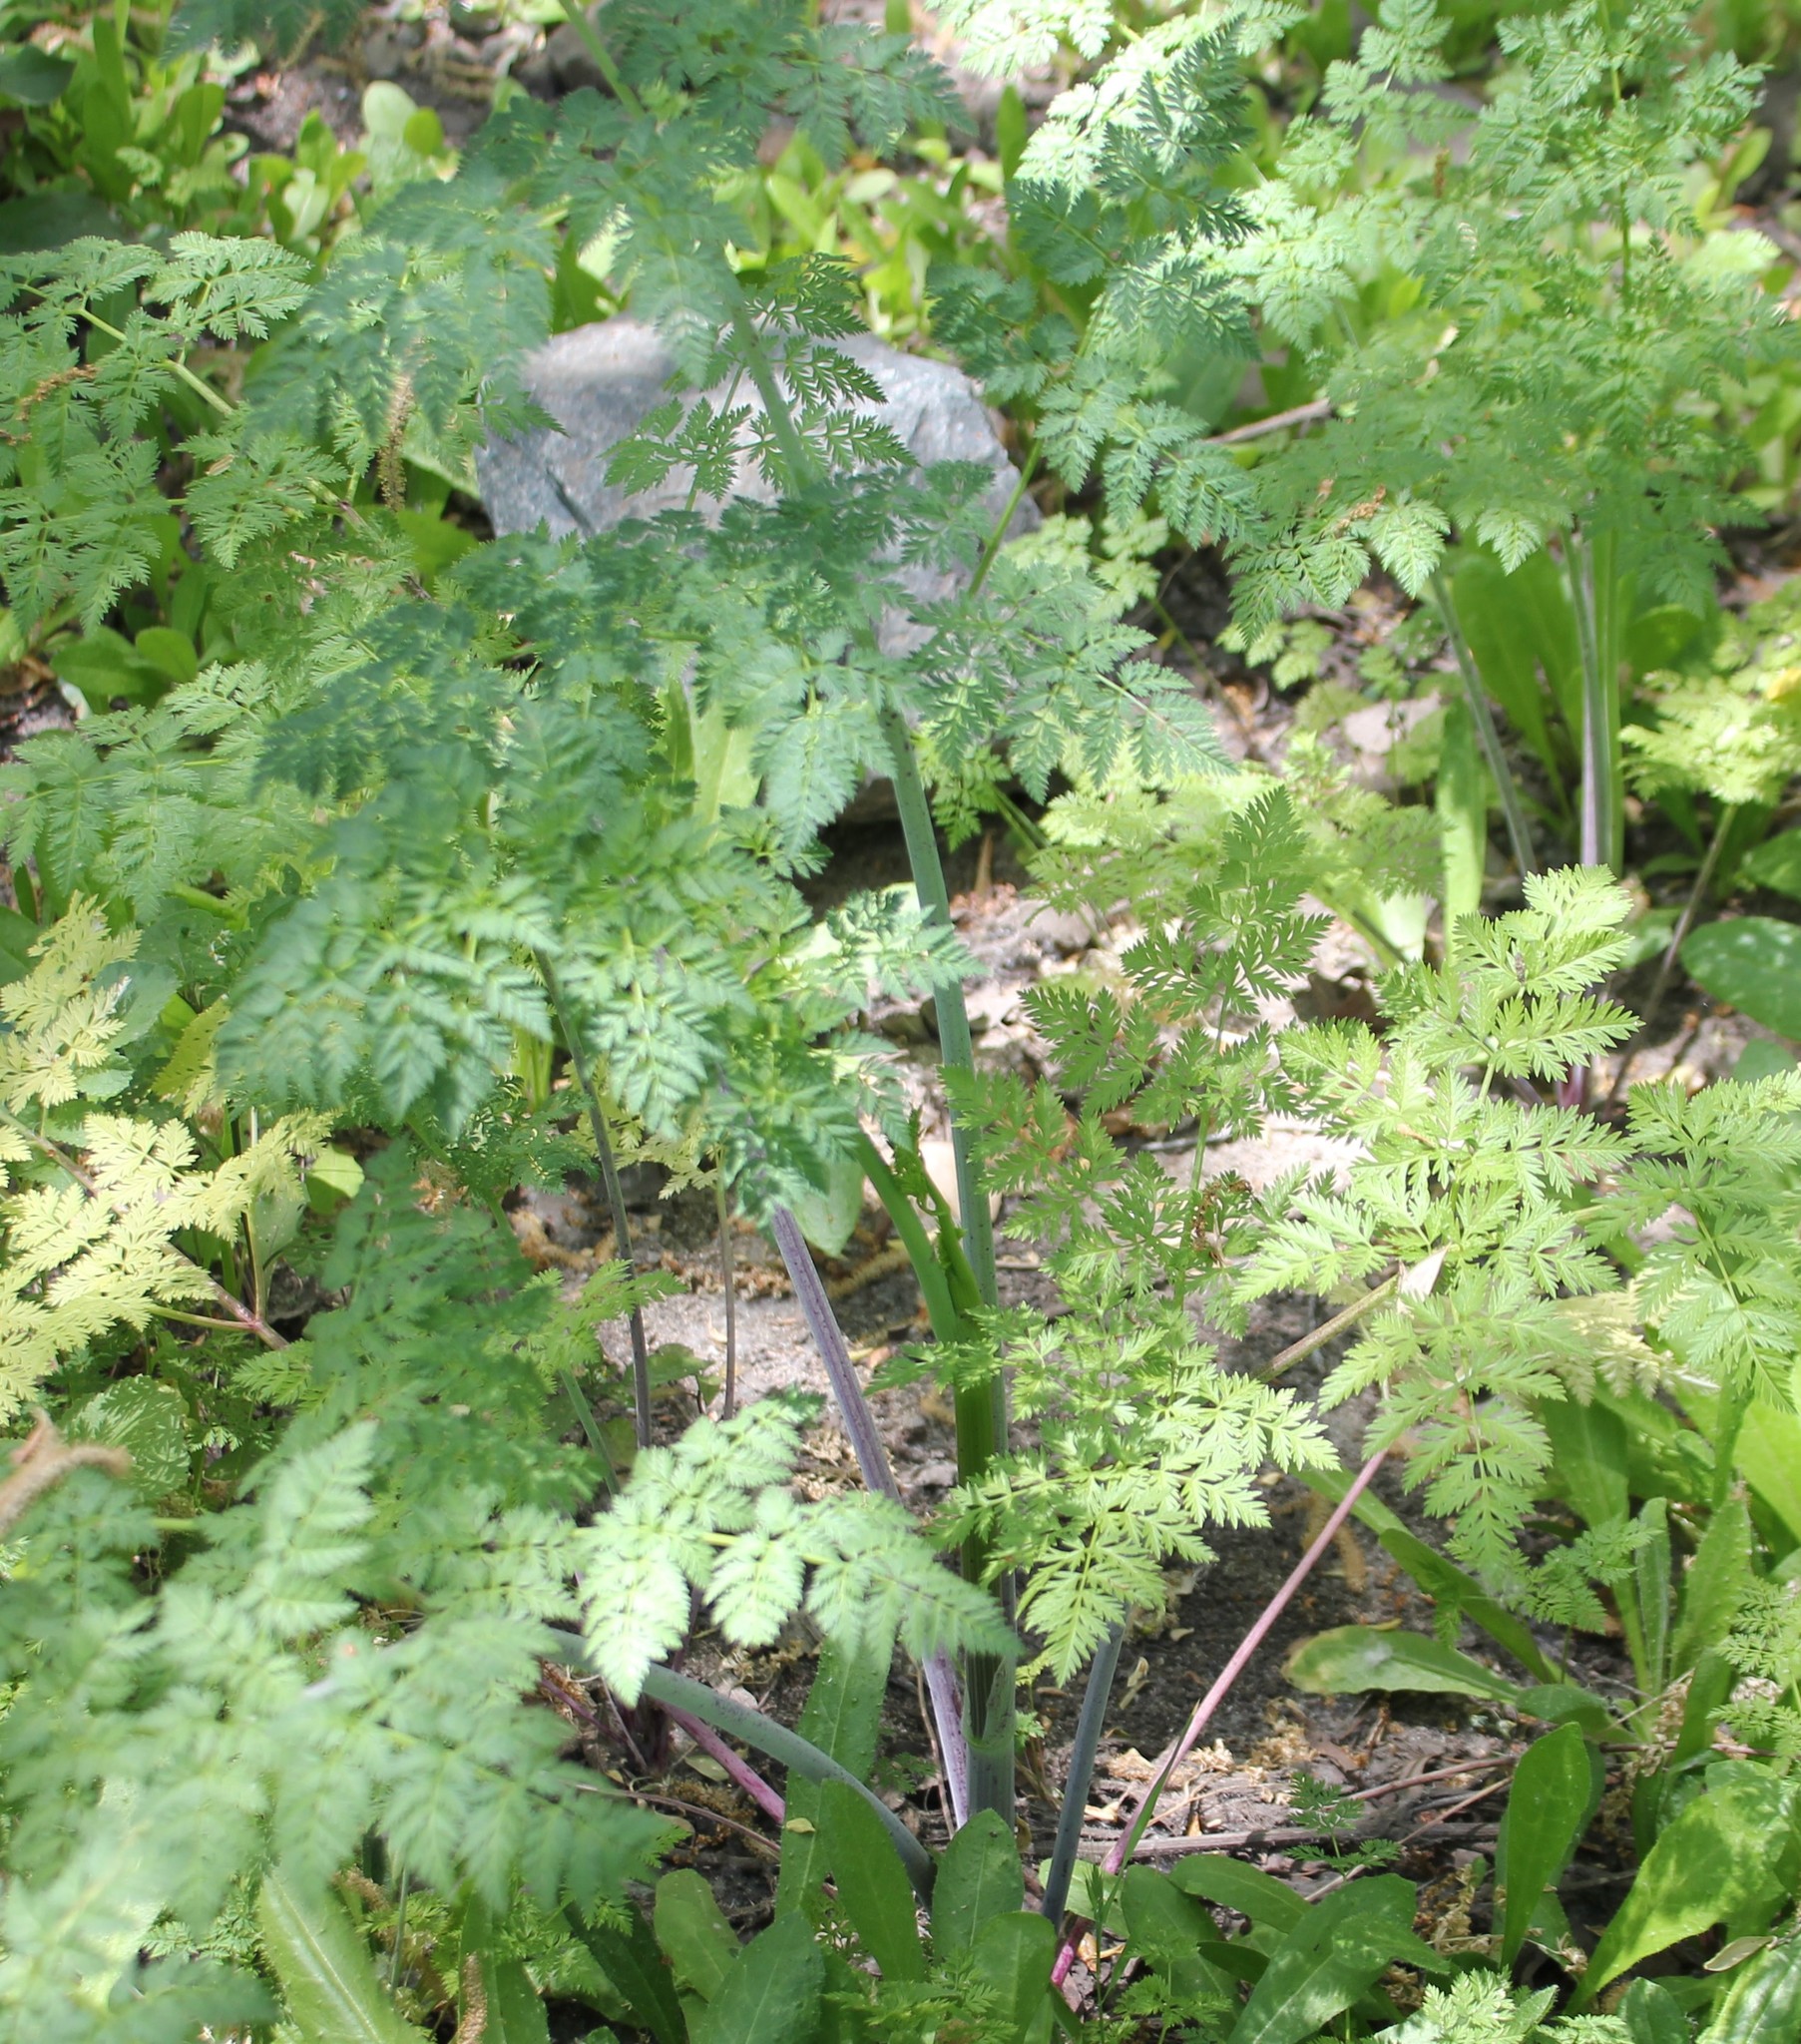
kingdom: Plantae
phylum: Tracheophyta
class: Magnoliopsida
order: Apiales
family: Apiaceae
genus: Conium
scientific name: Conium maculatum
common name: Hemlock
